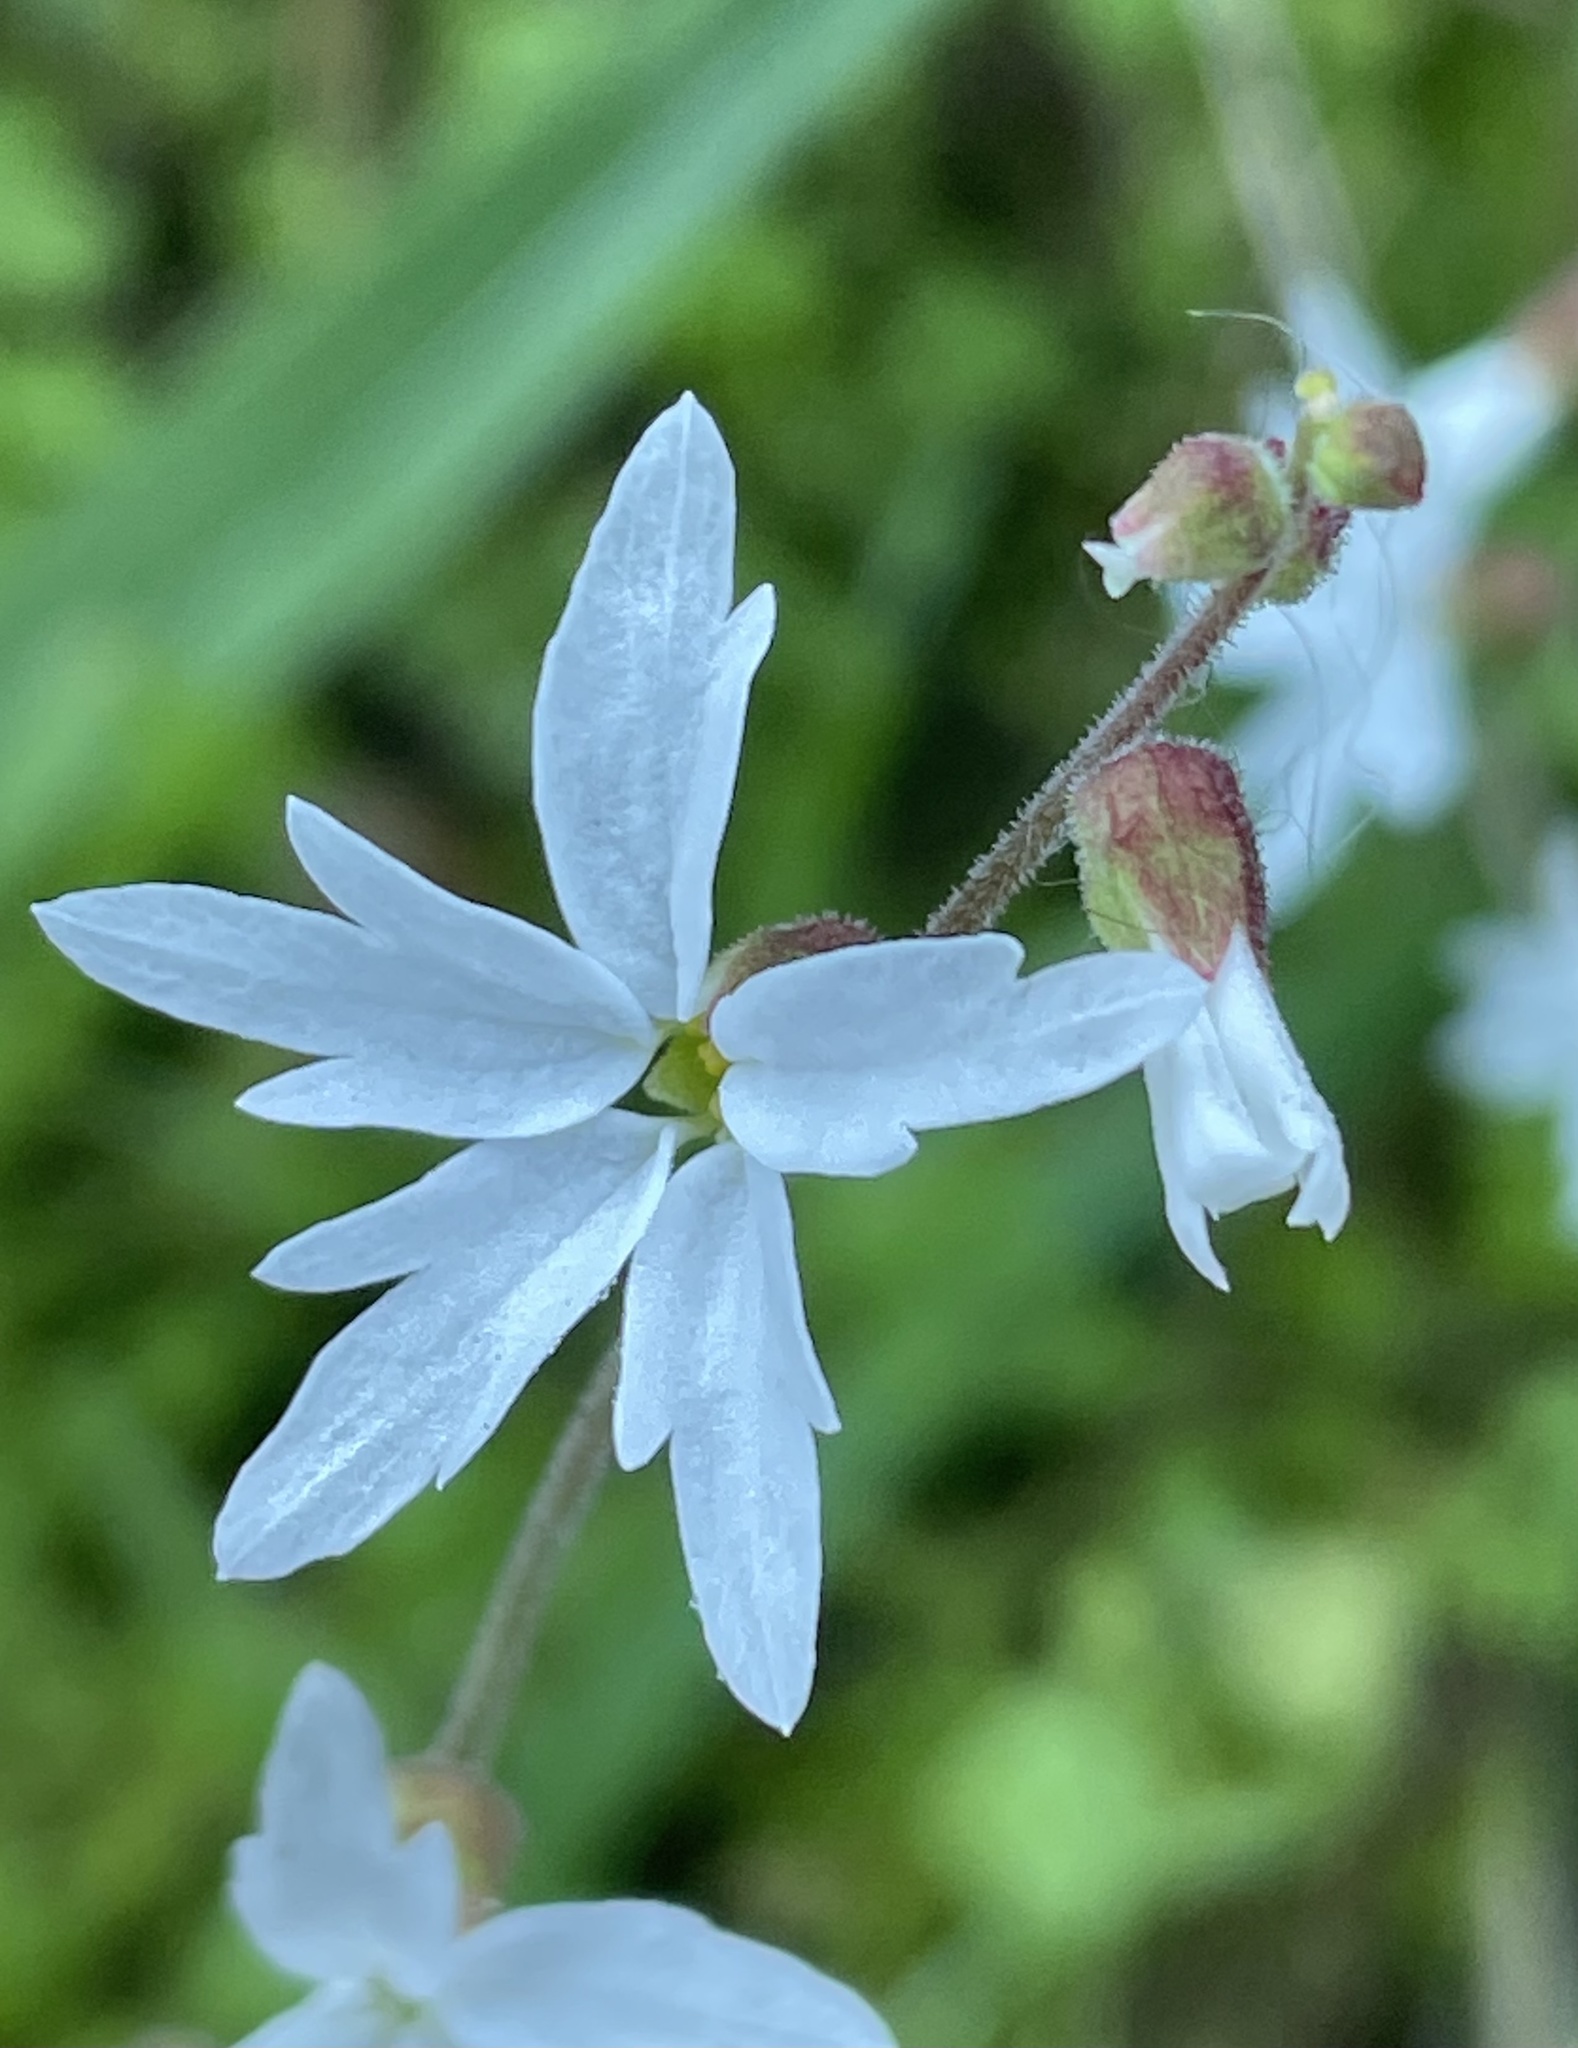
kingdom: Plantae
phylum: Tracheophyta
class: Magnoliopsida
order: Saxifragales
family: Saxifragaceae
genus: Lithophragma
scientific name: Lithophragma heterophyllum
